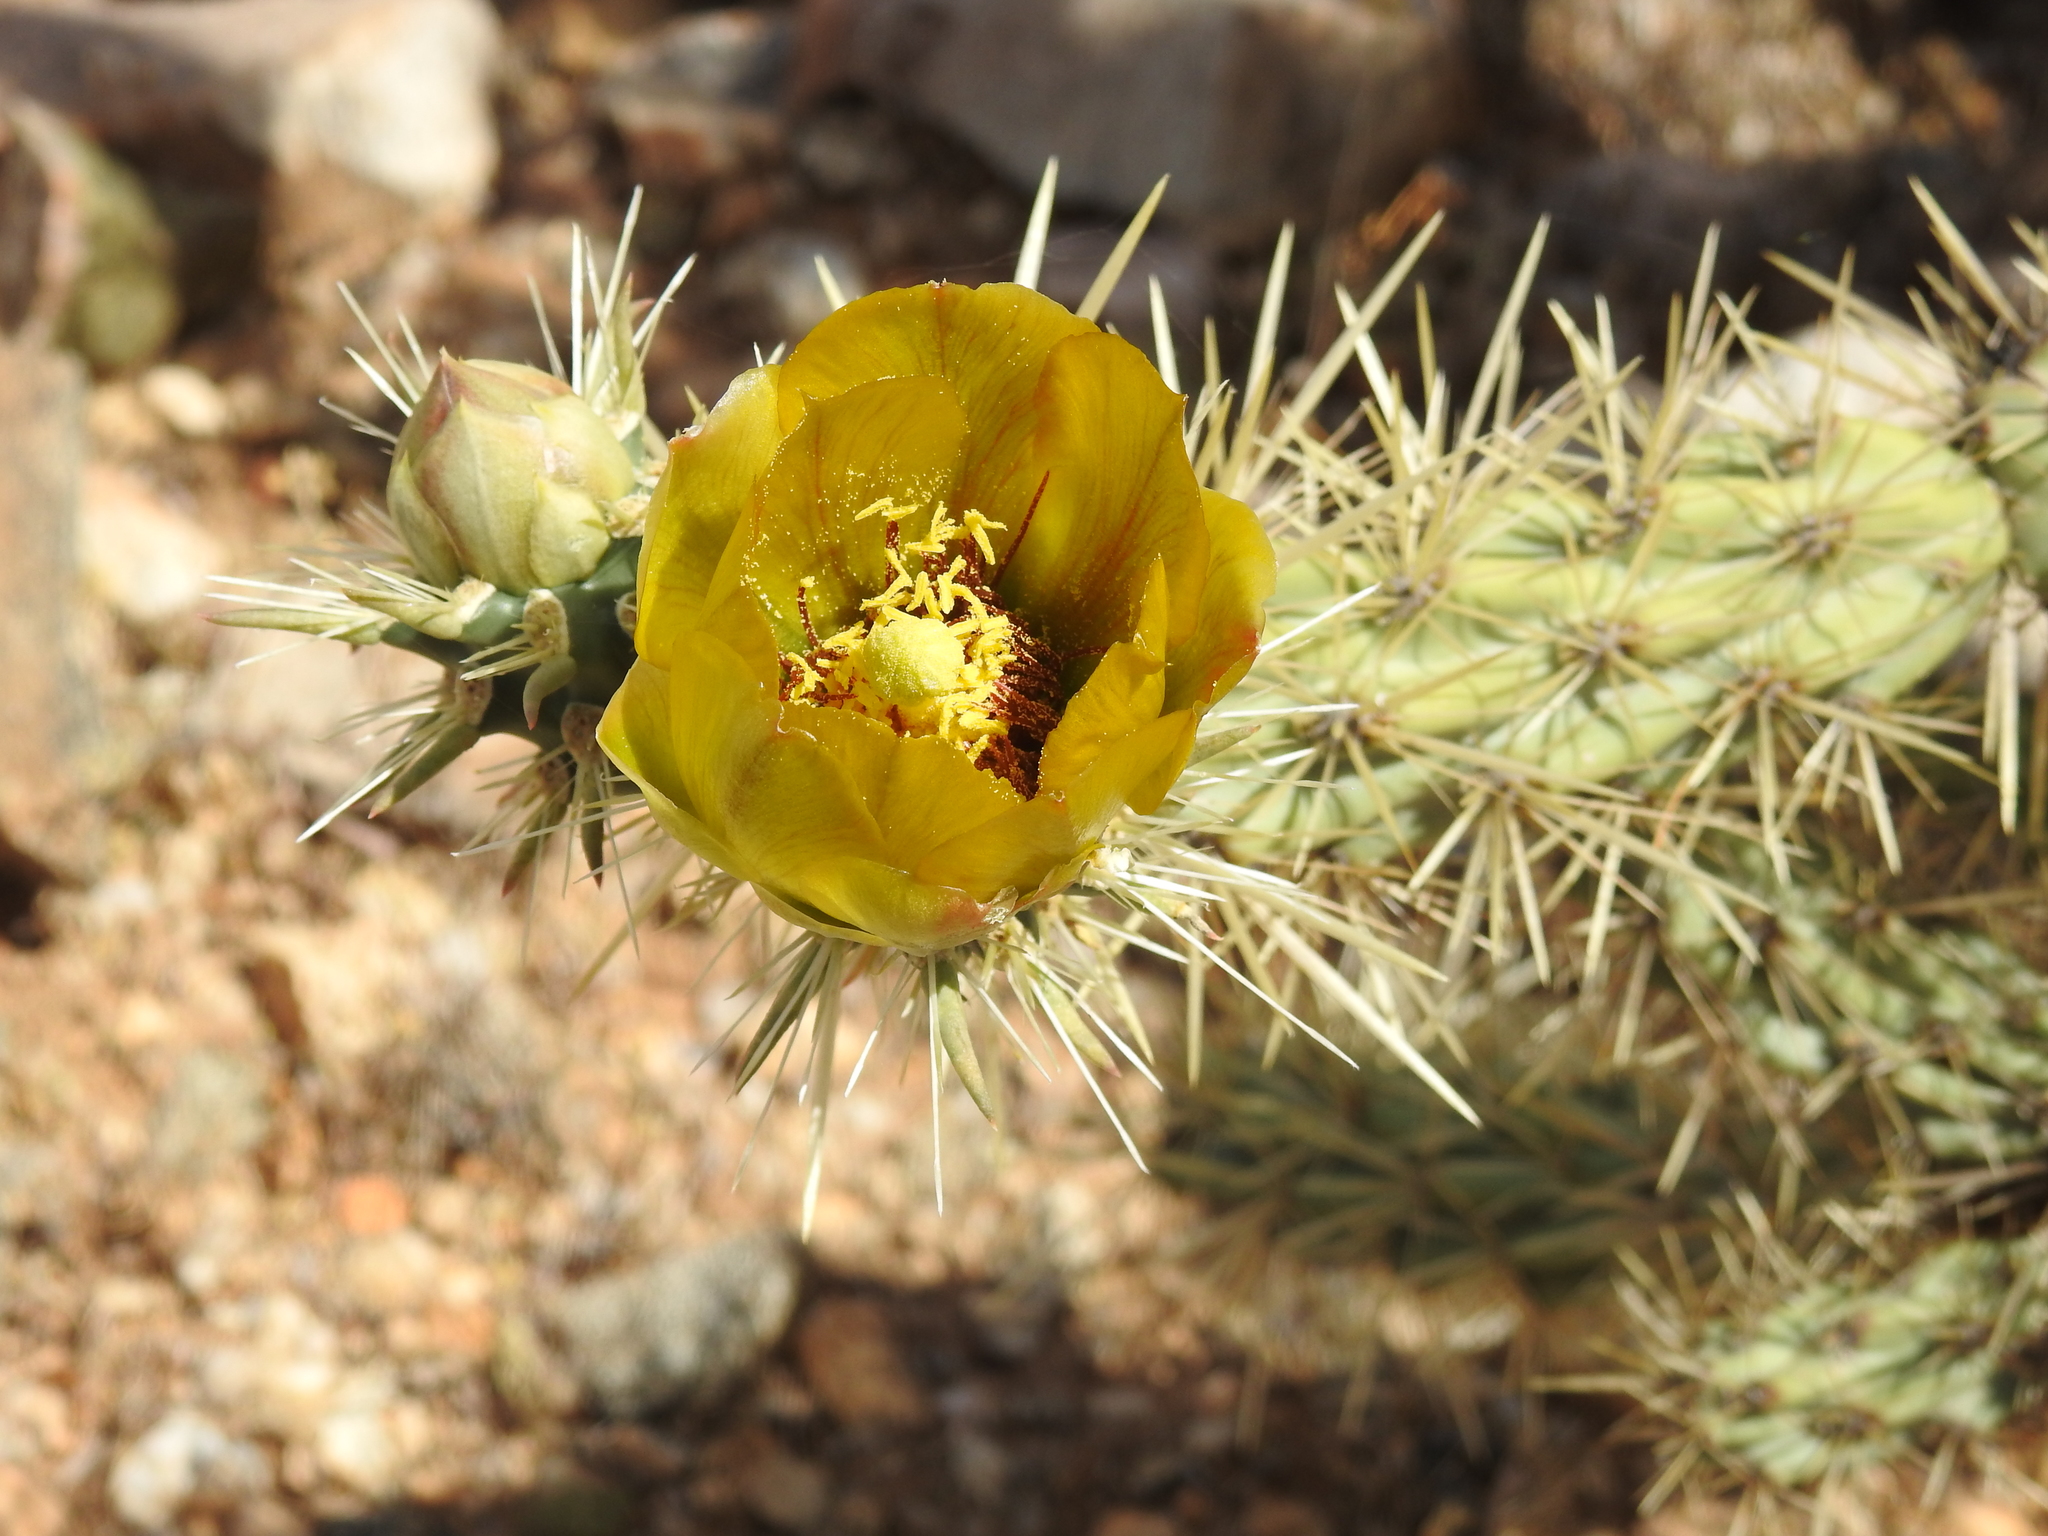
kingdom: Plantae
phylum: Tracheophyta
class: Magnoliopsida
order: Caryophyllales
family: Cactaceae
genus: Cylindropuntia
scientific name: Cylindropuntia acanthocarpa
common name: Buckhorn cholla
